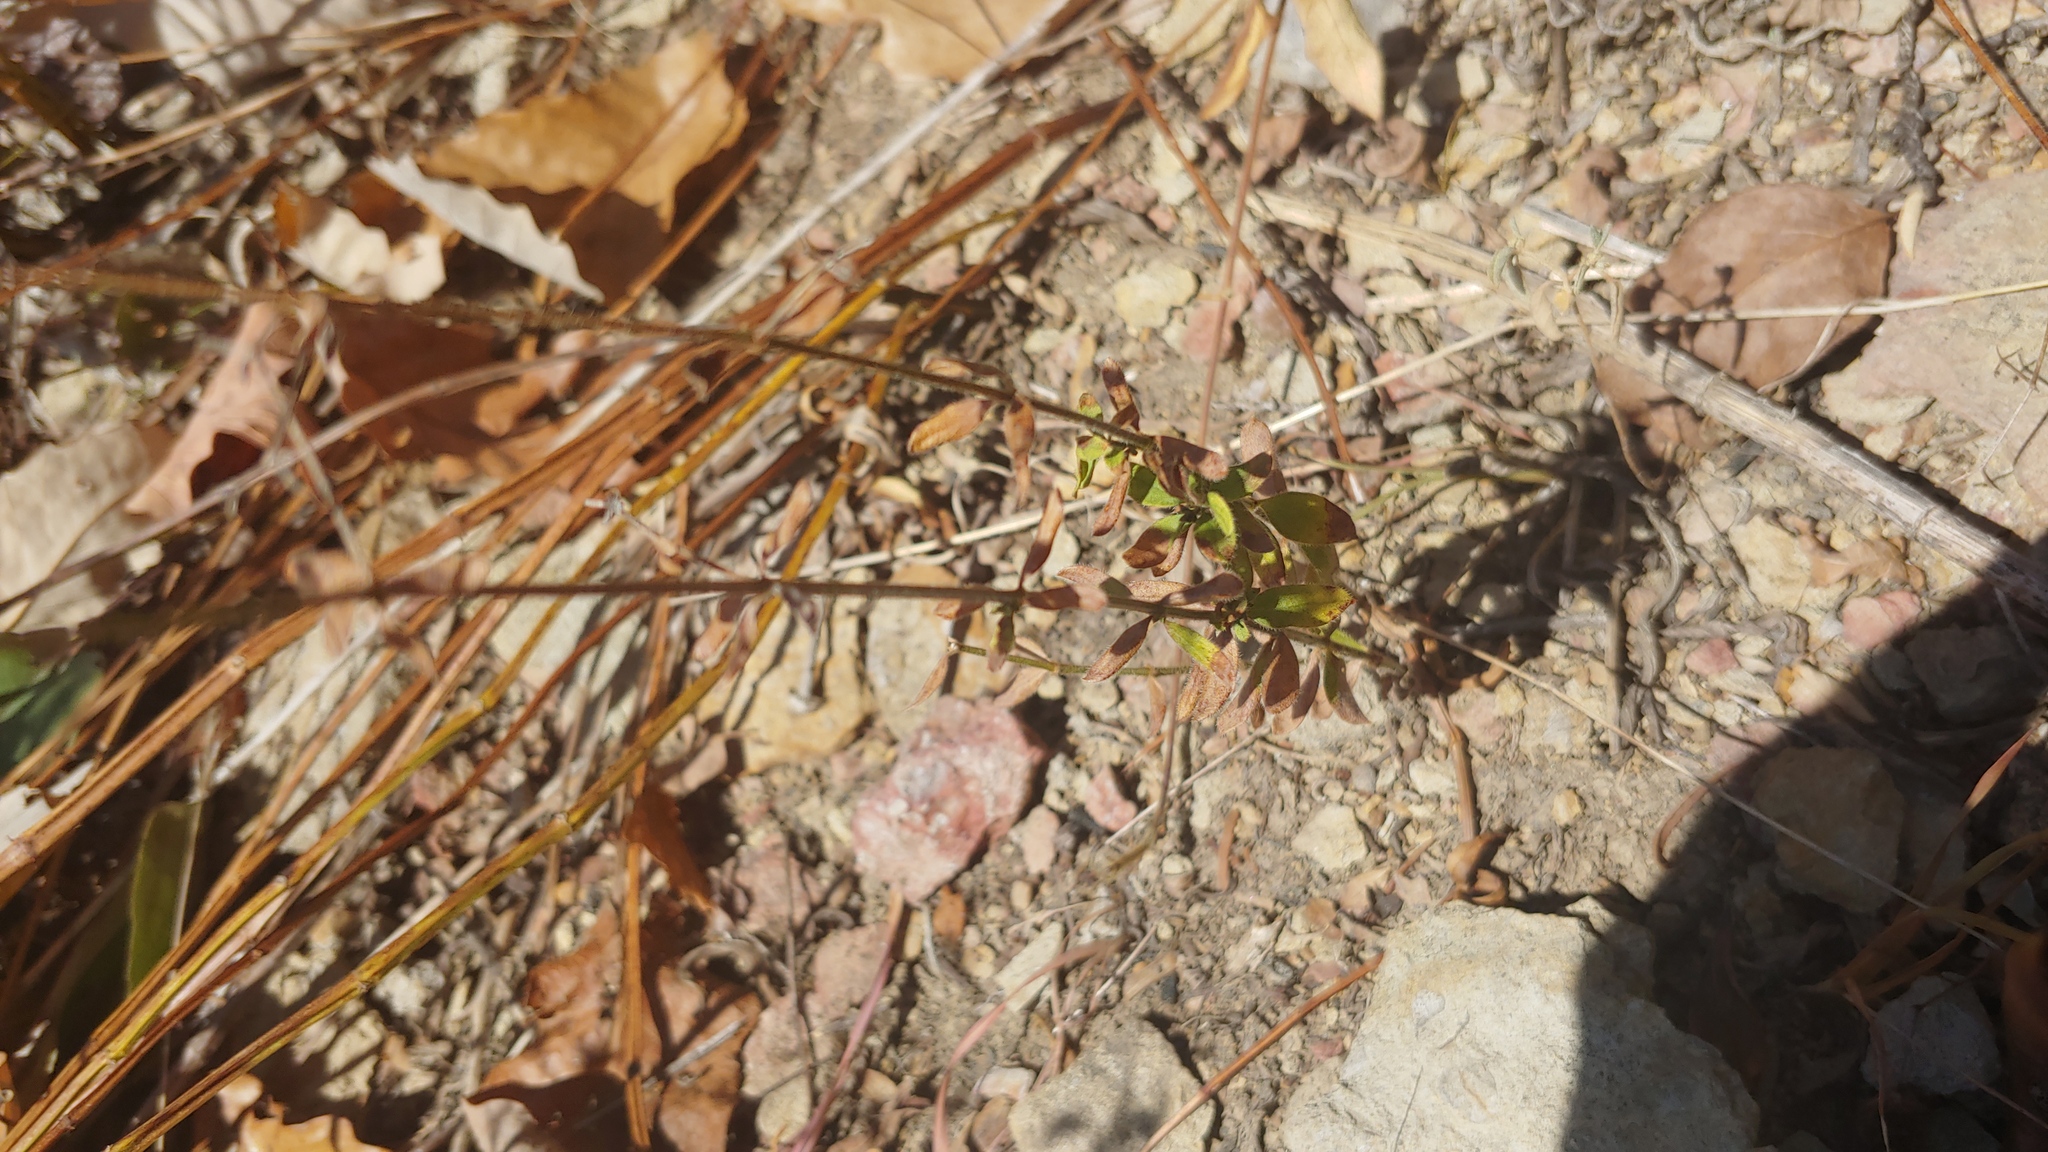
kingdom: Plantae
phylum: Tracheophyta
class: Magnoliopsida
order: Gentianales
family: Rubiaceae
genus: Galium
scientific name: Galium pilosum
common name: Hairy bedstraw
